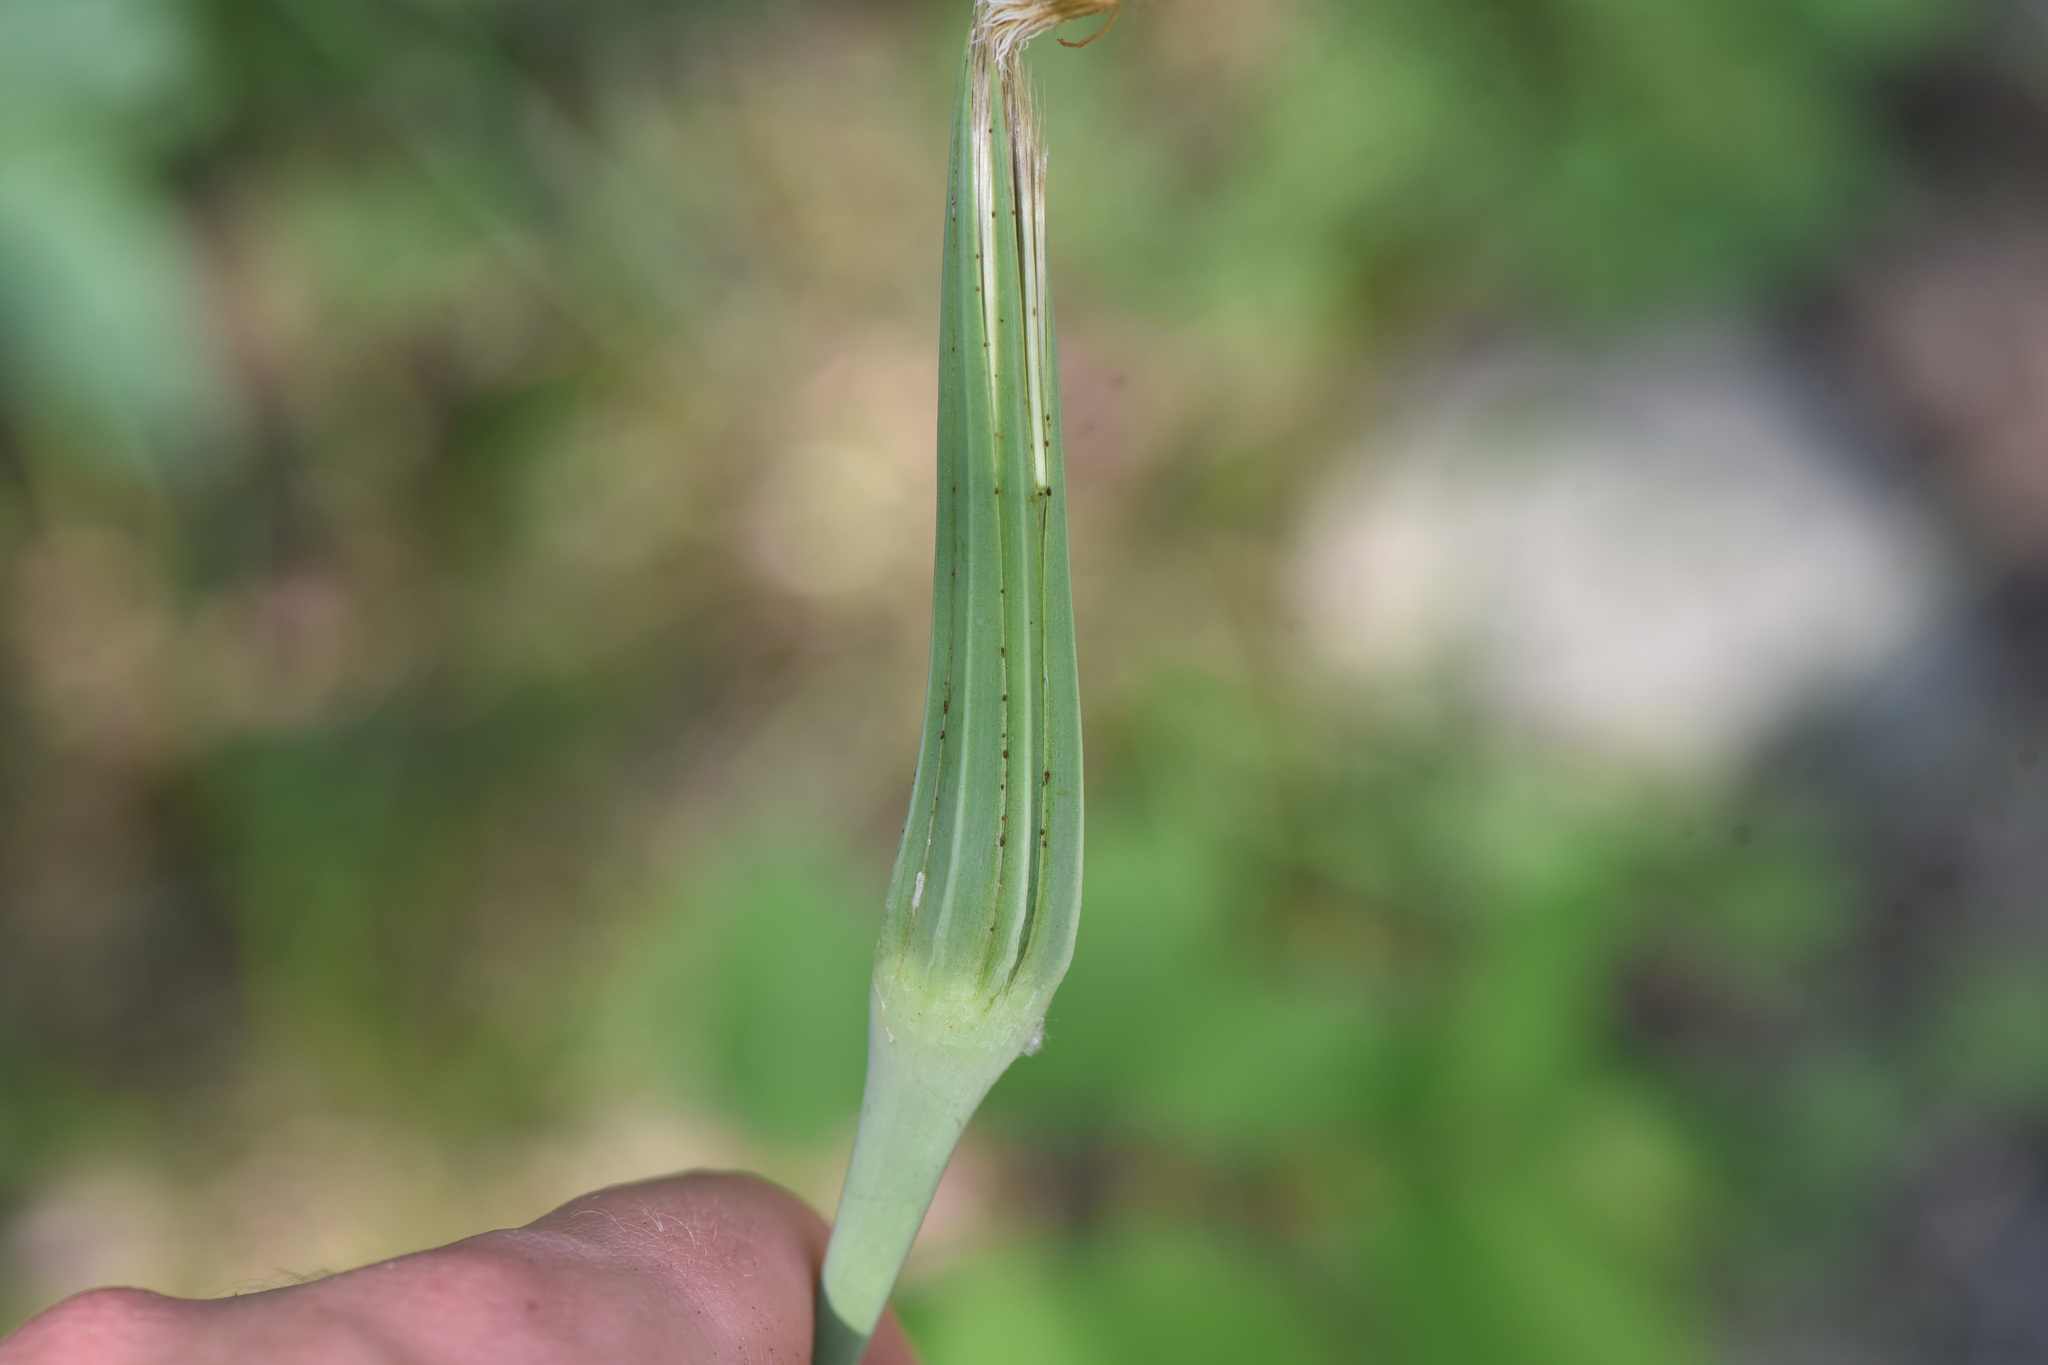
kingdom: Plantae
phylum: Tracheophyta
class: Magnoliopsida
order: Asterales
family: Asteraceae
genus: Tragopogon
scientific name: Tragopogon dubius
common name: Yellow salsify
